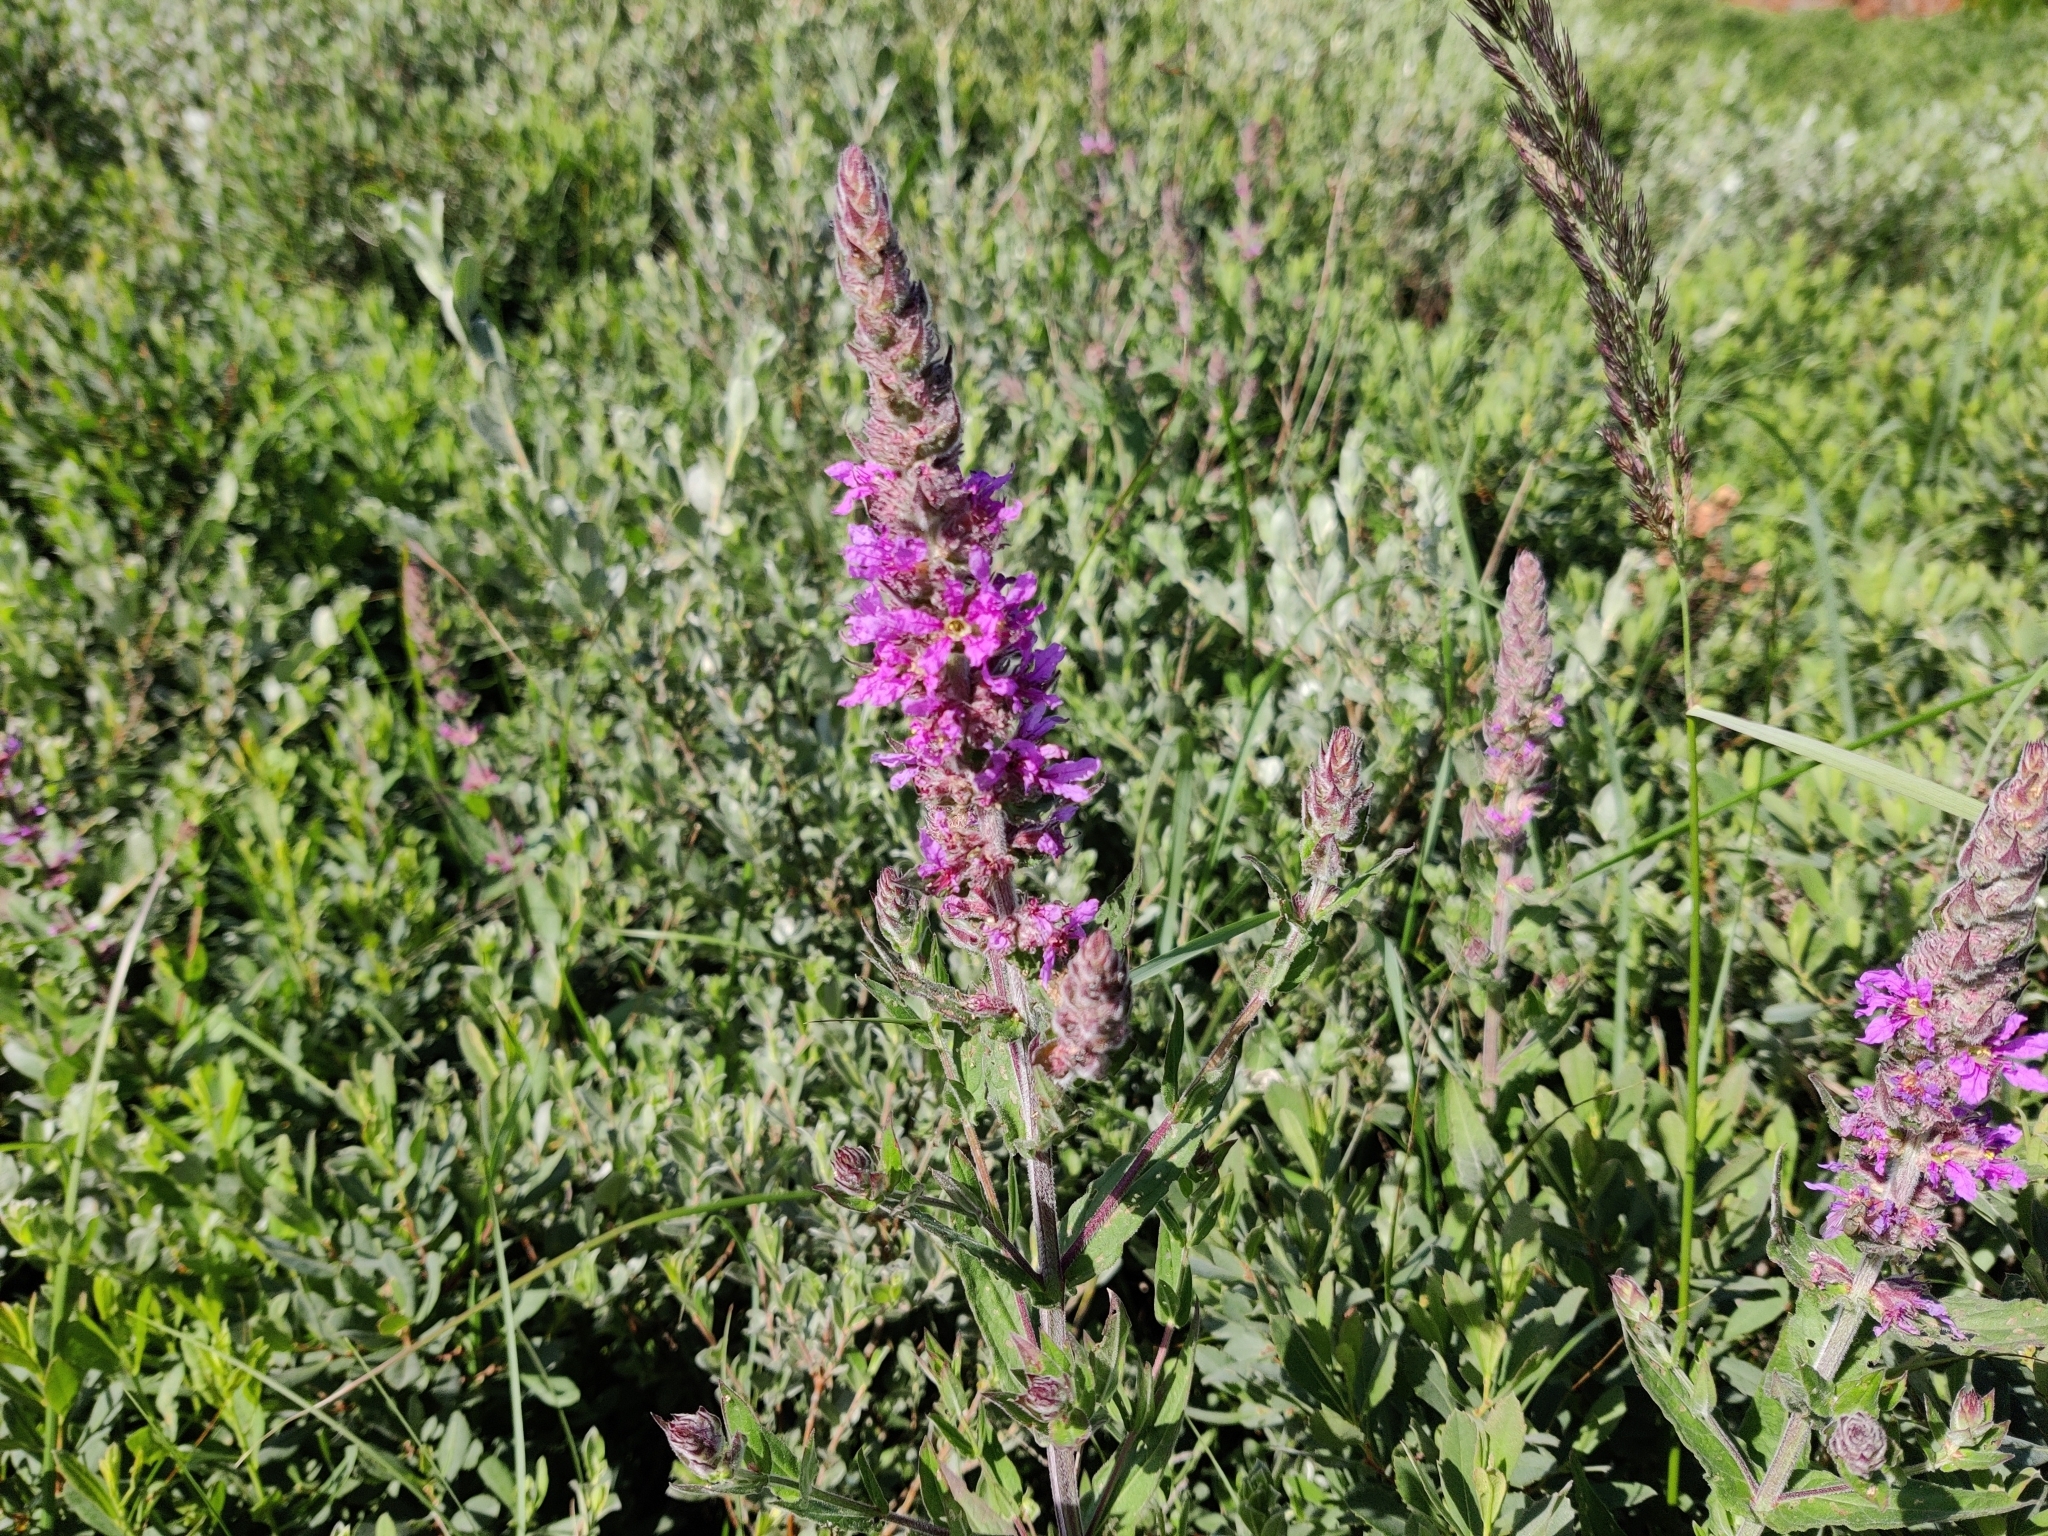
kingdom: Plantae
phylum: Tracheophyta
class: Magnoliopsida
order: Myrtales
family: Lythraceae
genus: Lythrum
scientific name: Lythrum salicaria
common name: Purple loosestrife
